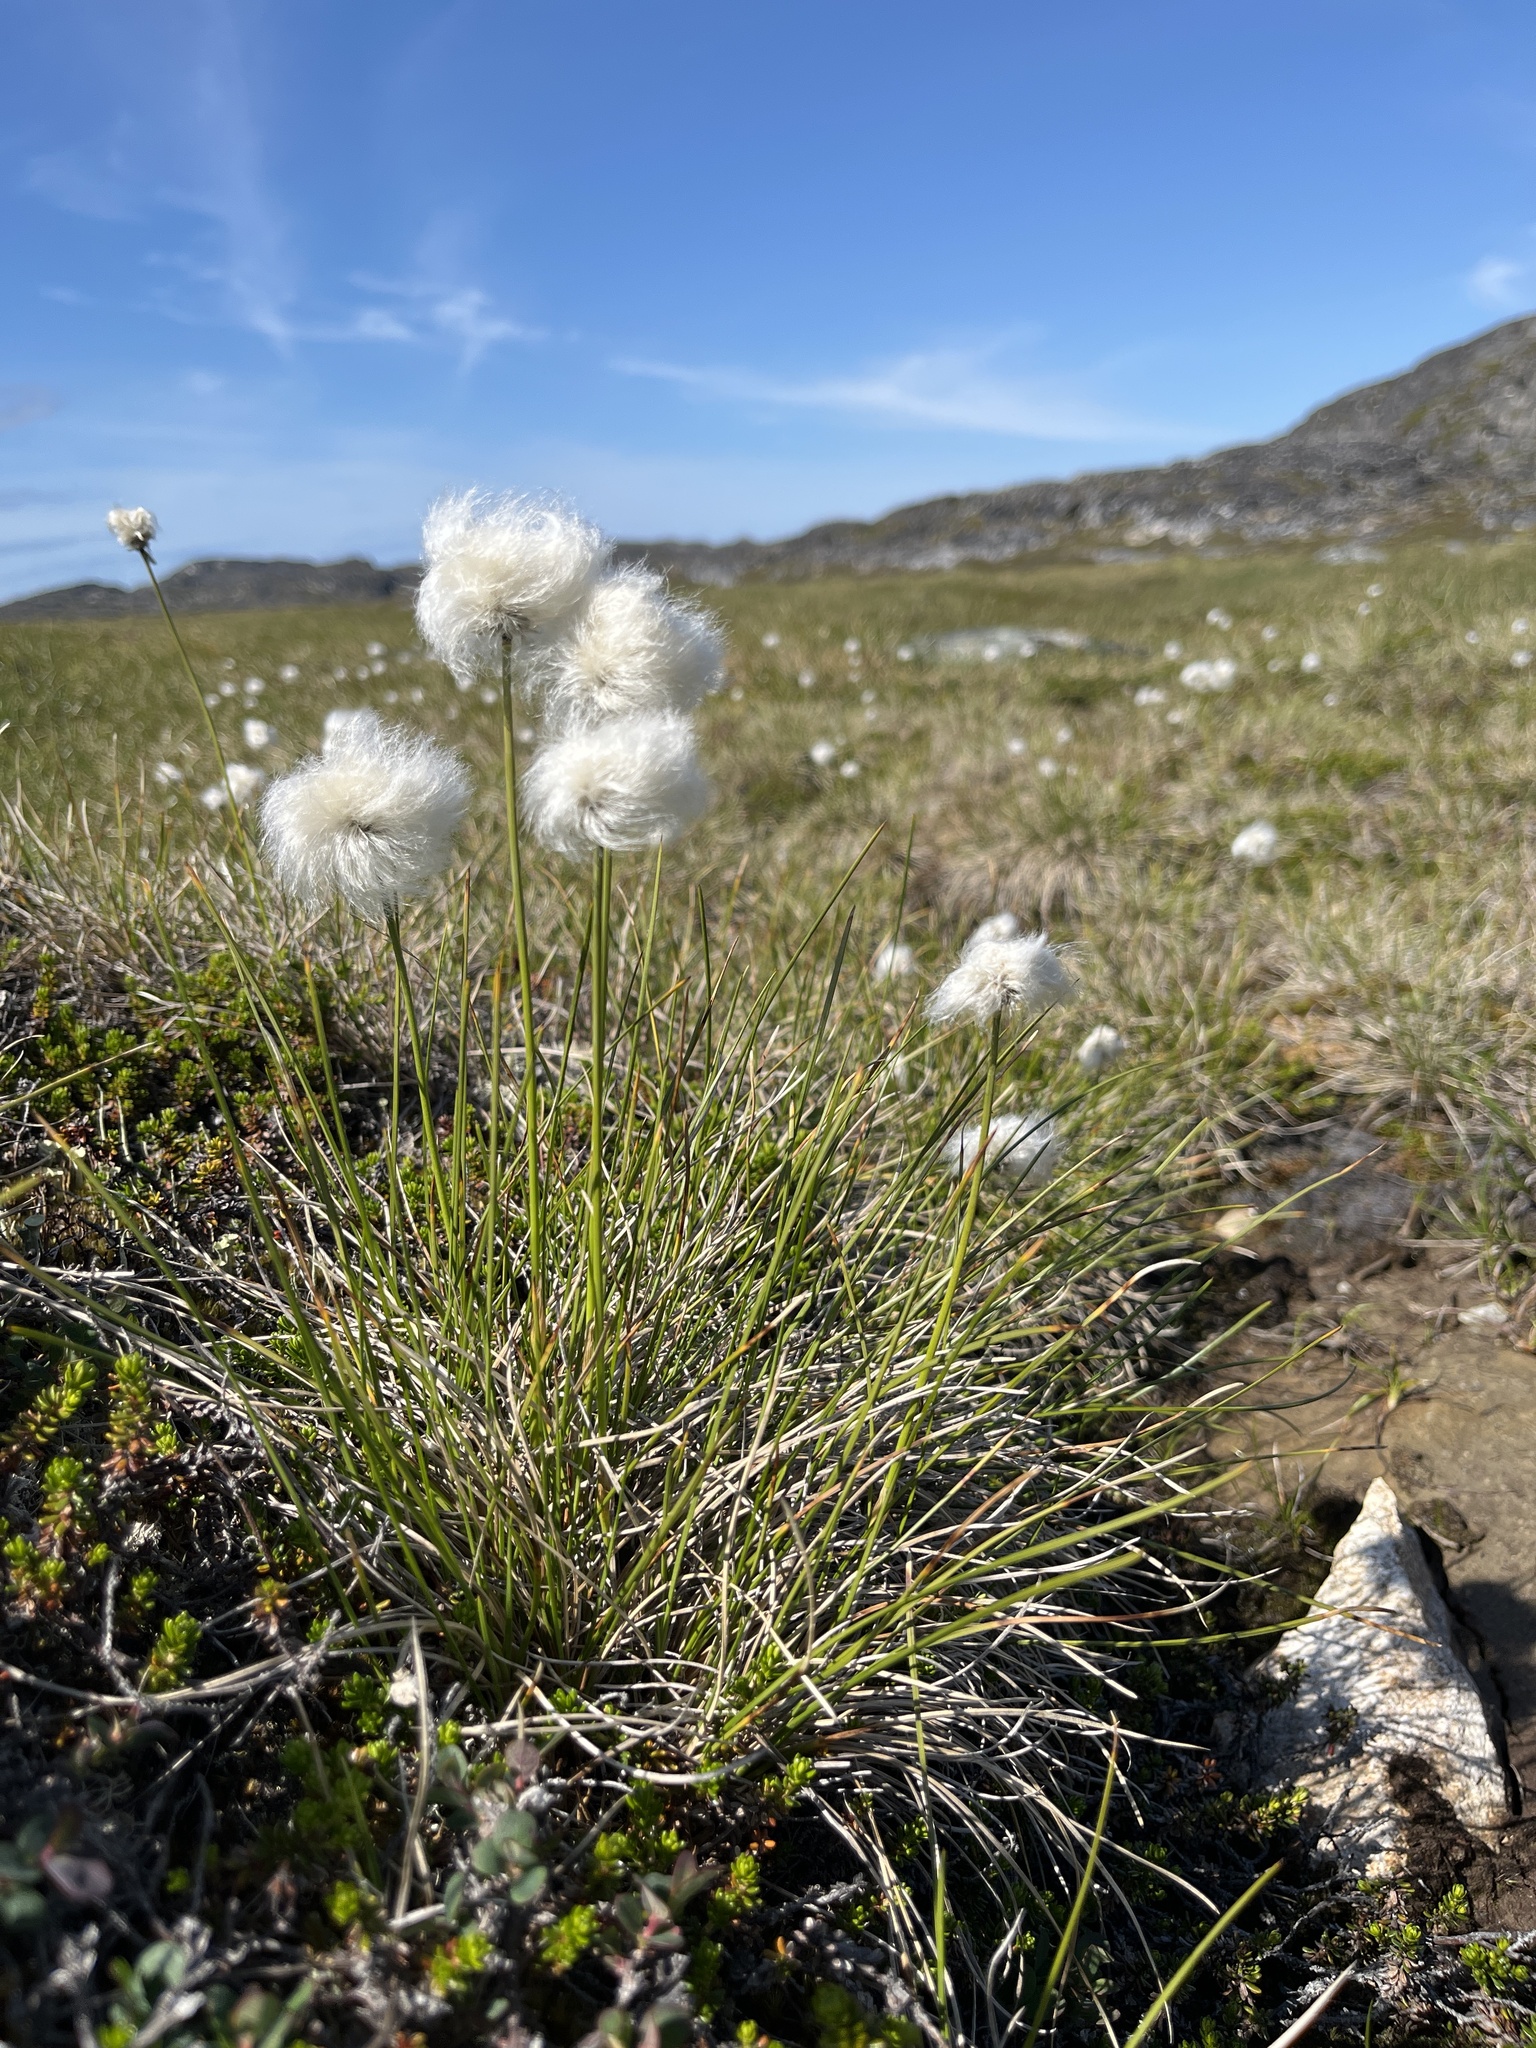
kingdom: Plantae
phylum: Tracheophyta
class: Liliopsida
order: Poales
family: Cyperaceae
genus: Eriophorum
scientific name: Eriophorum vaginatum
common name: Hare's-tail cottongrass
